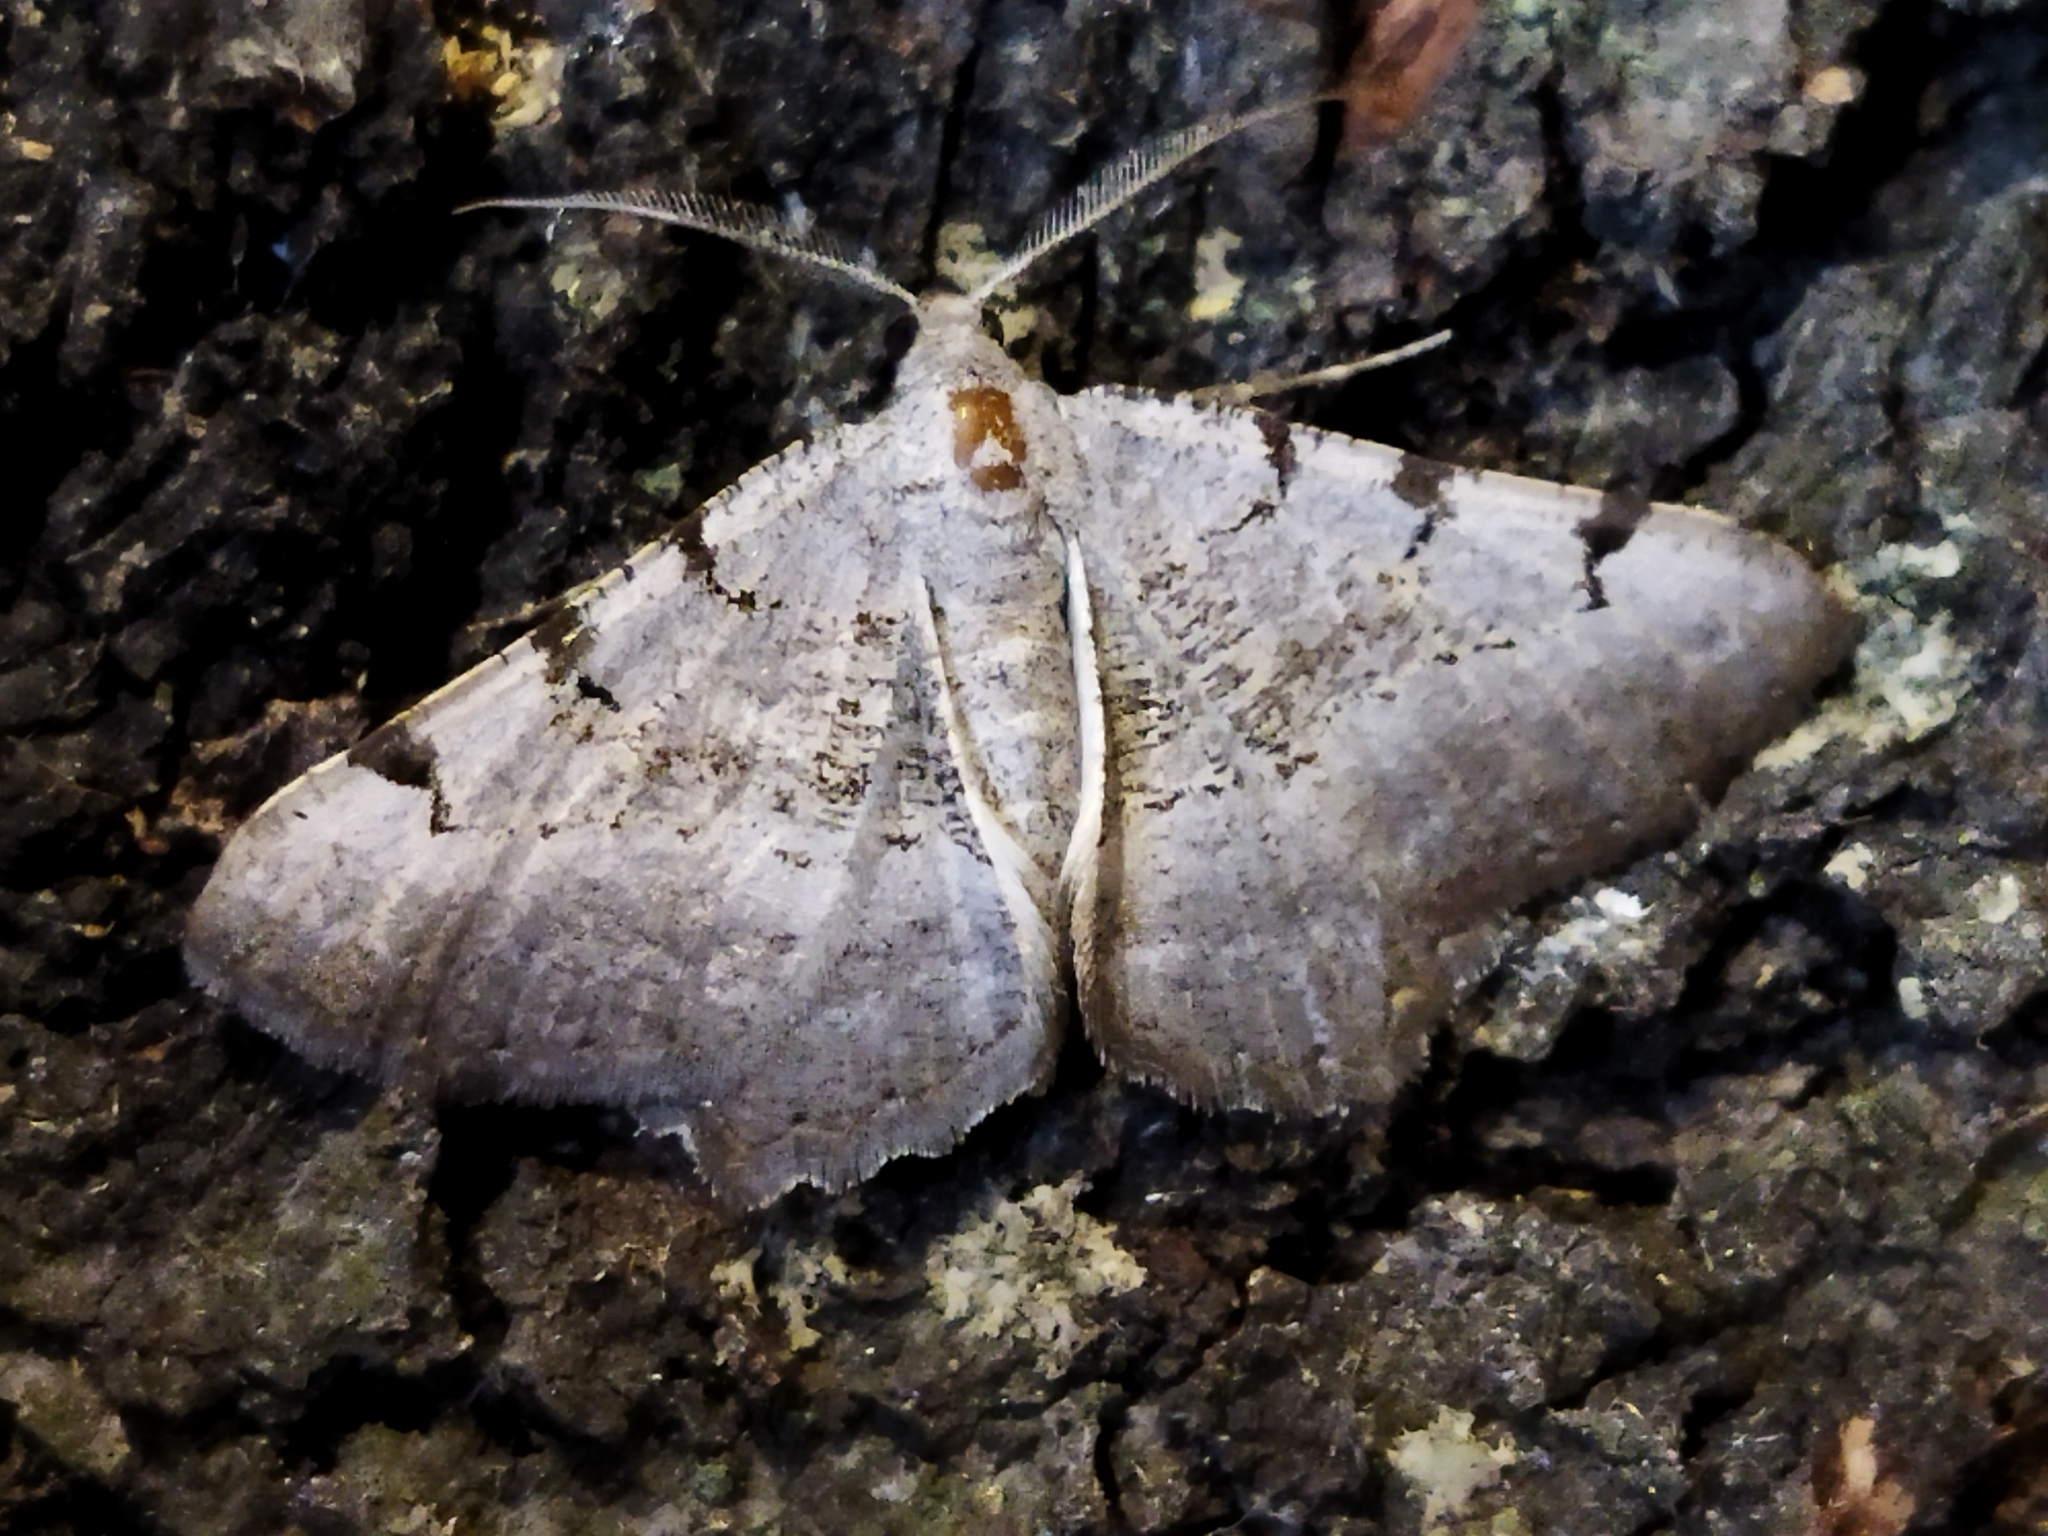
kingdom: Animalia
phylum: Arthropoda
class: Insecta
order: Lepidoptera
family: Geometridae
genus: Neognopharmia
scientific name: Neognopharmia stevenaria
